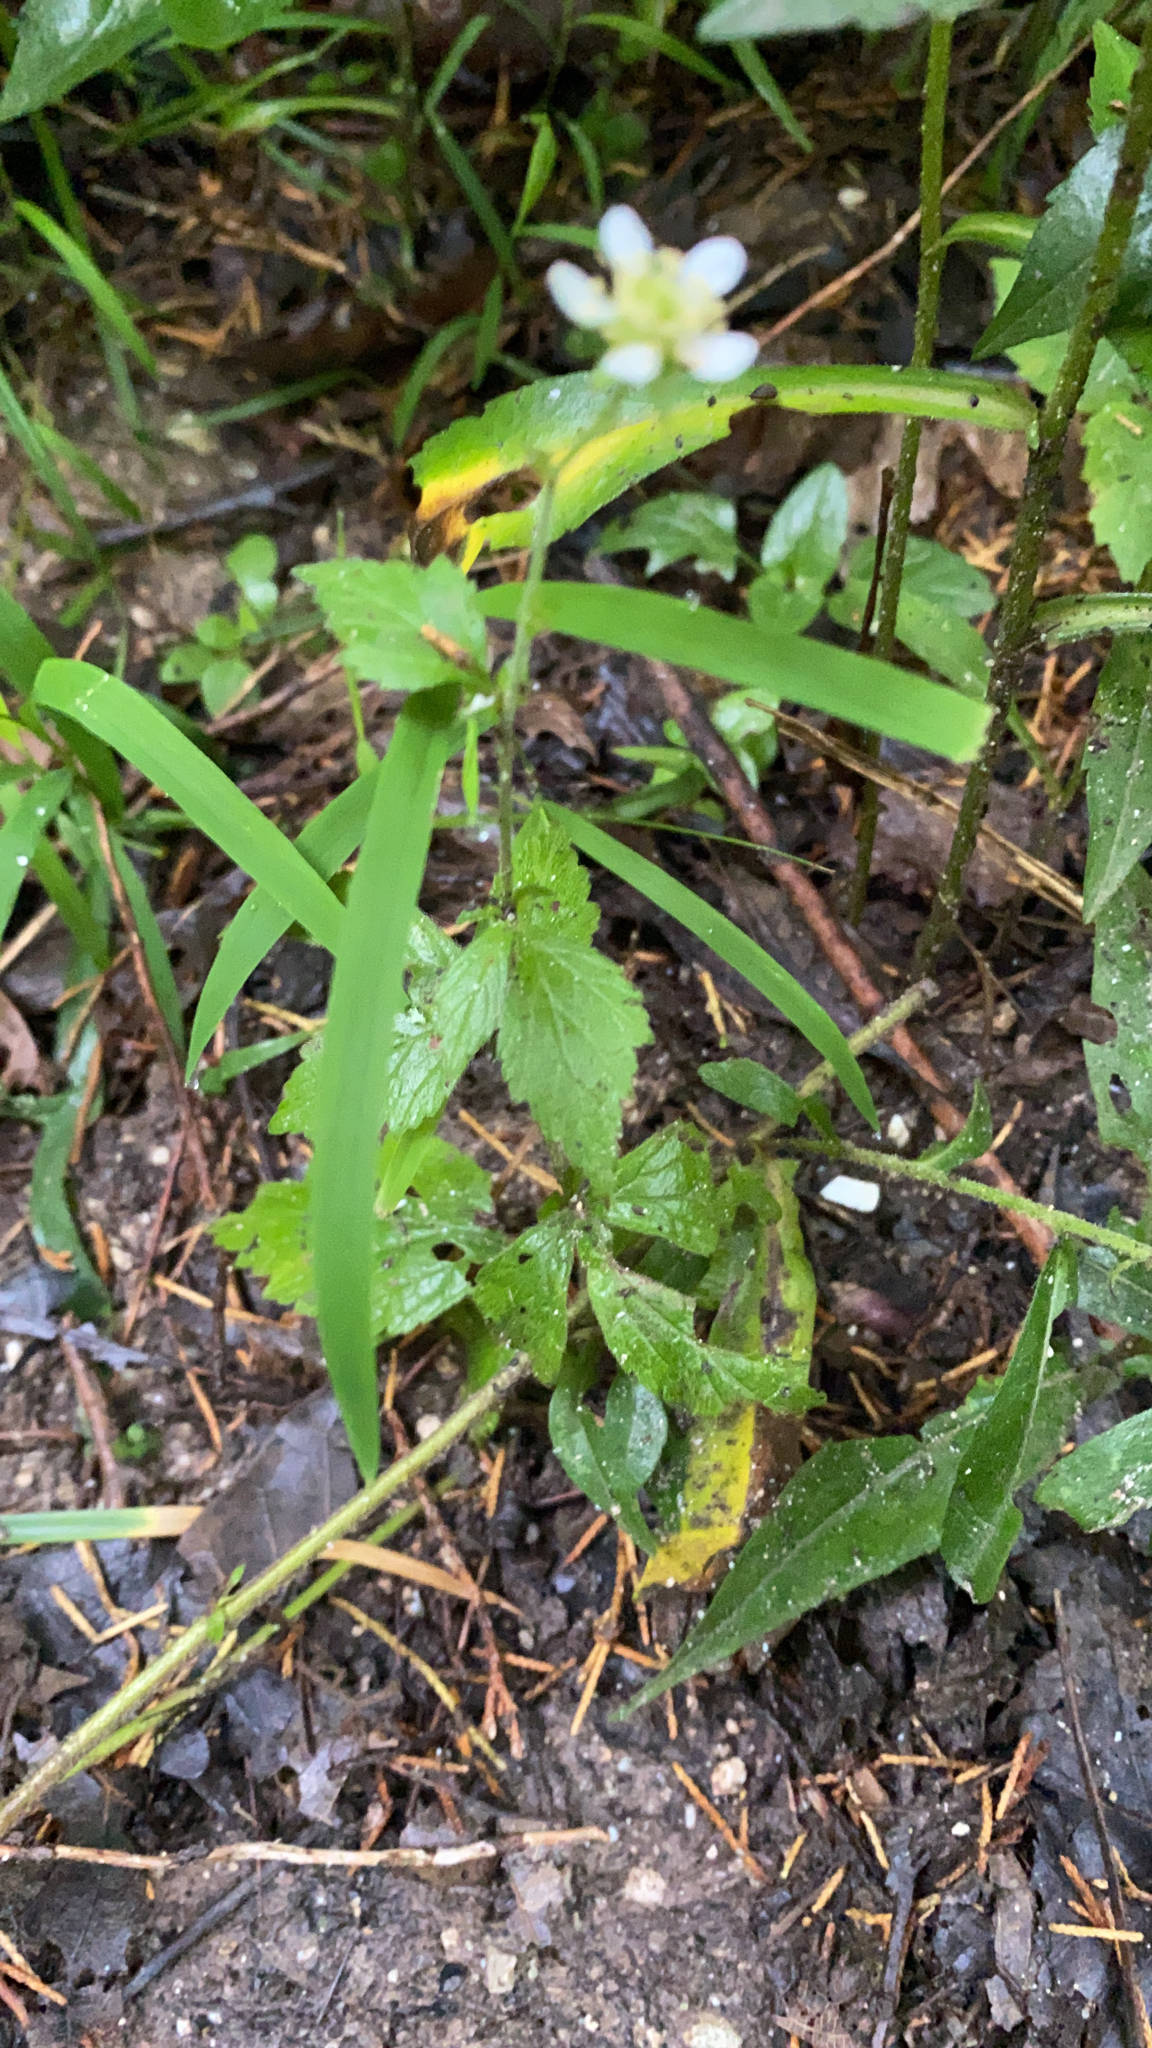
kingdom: Plantae
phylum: Tracheophyta
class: Magnoliopsida
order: Rosales
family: Rosaceae
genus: Geum
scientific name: Geum canadense
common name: White avens
